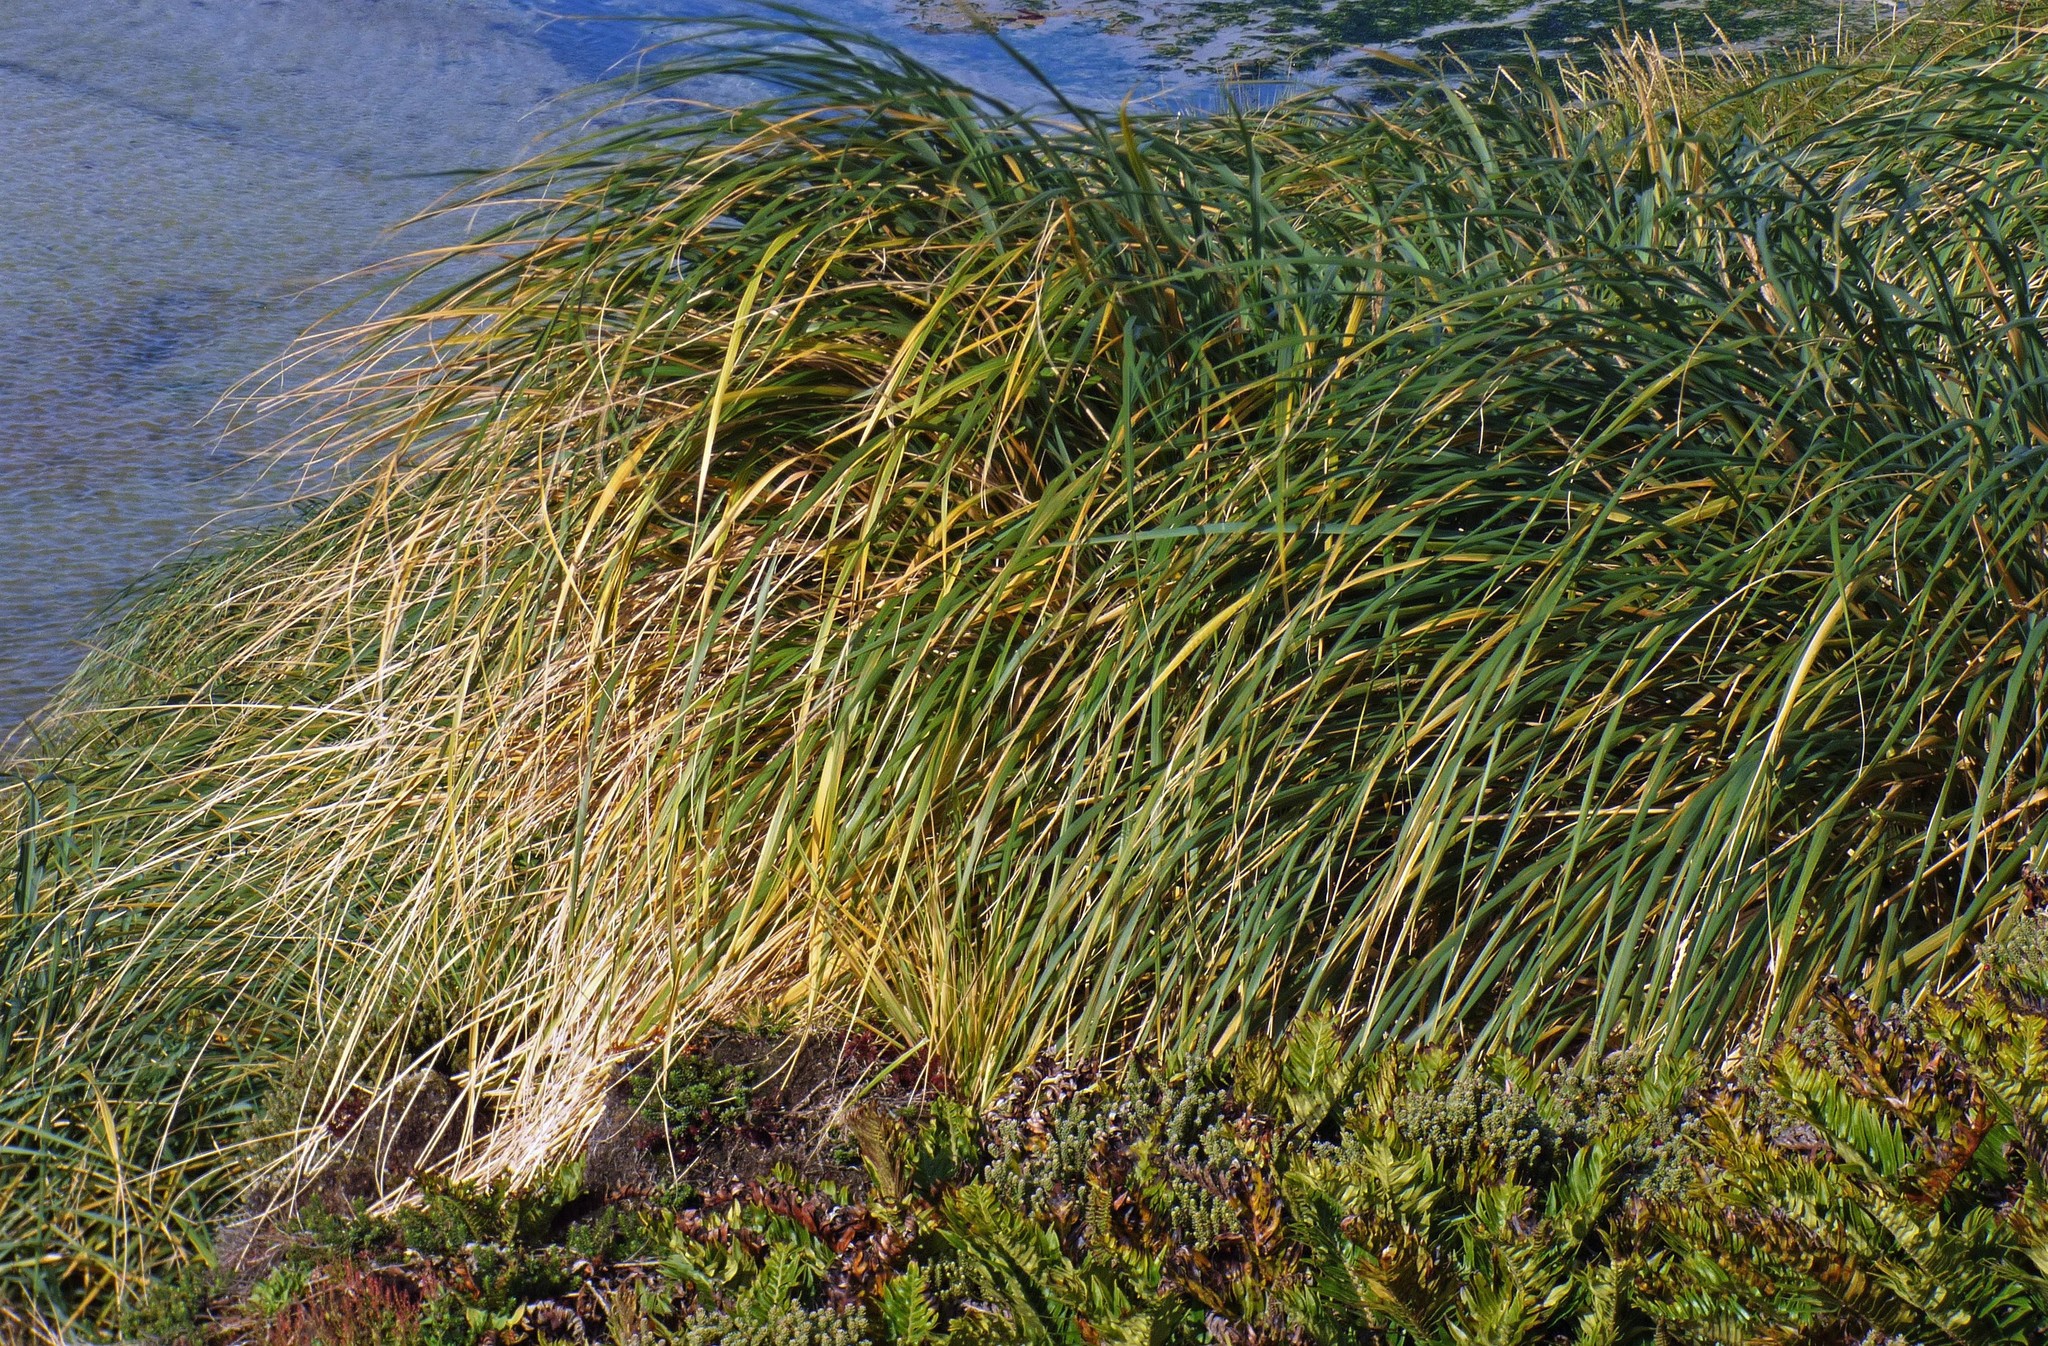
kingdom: Plantae
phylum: Tracheophyta
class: Liliopsida
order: Poales
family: Poaceae
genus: Poa
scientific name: Poa flabellata
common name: Tussac-grass
